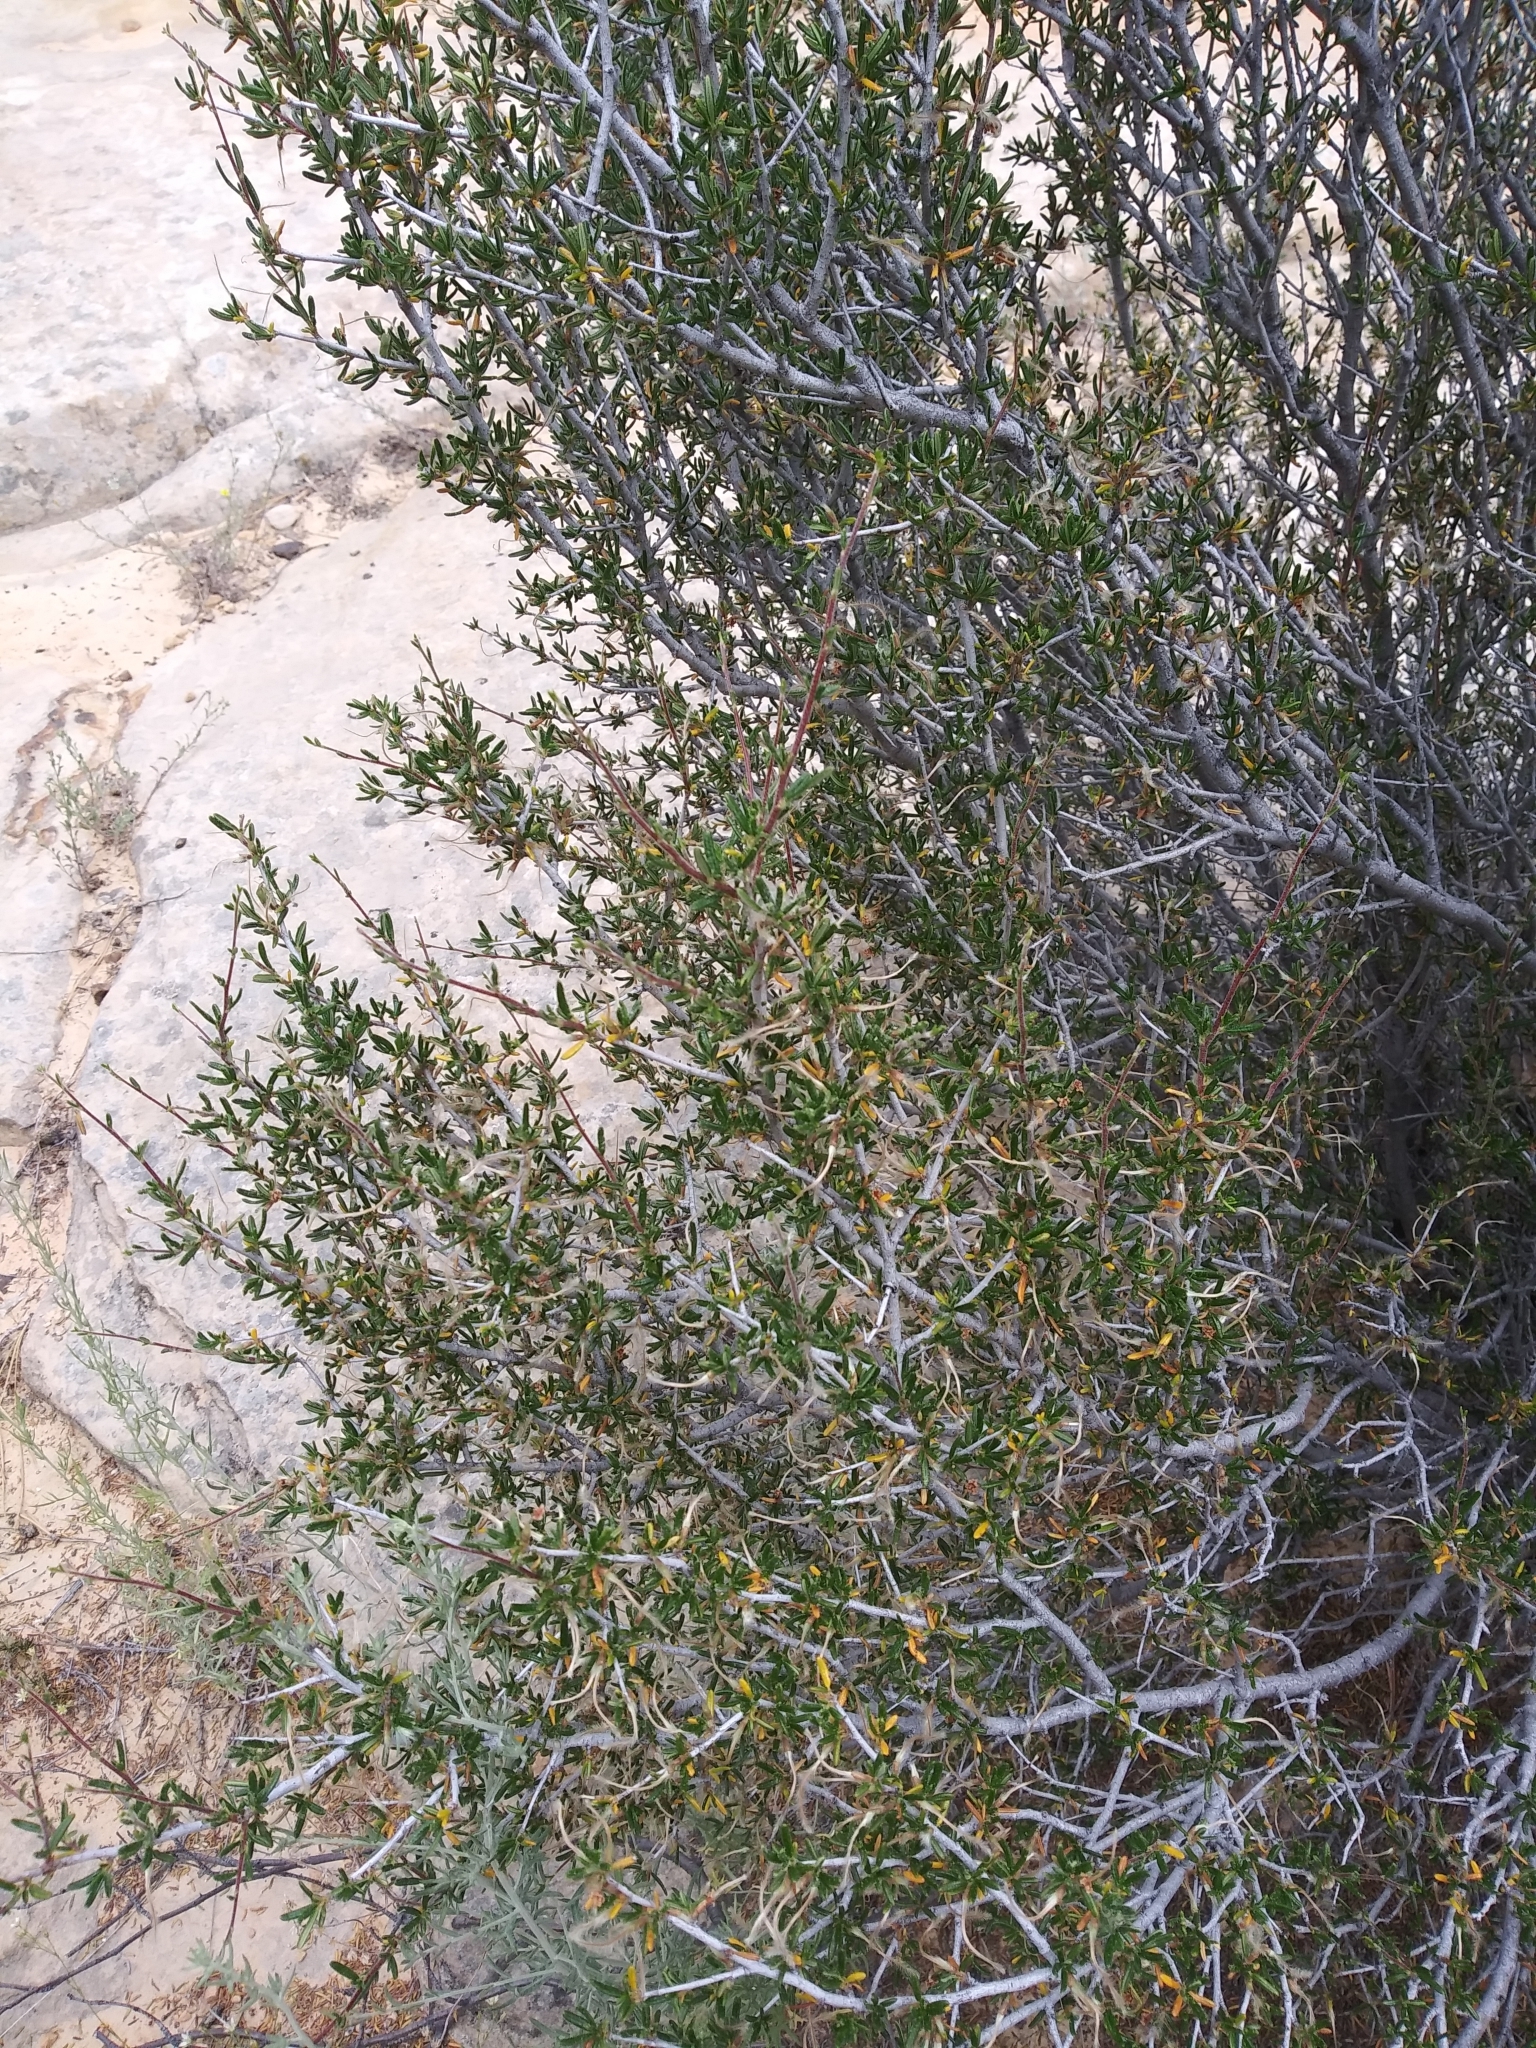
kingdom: Plantae
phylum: Tracheophyta
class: Magnoliopsida
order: Rosales
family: Rosaceae
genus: Cercocarpus
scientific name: Cercocarpus ledifolius
